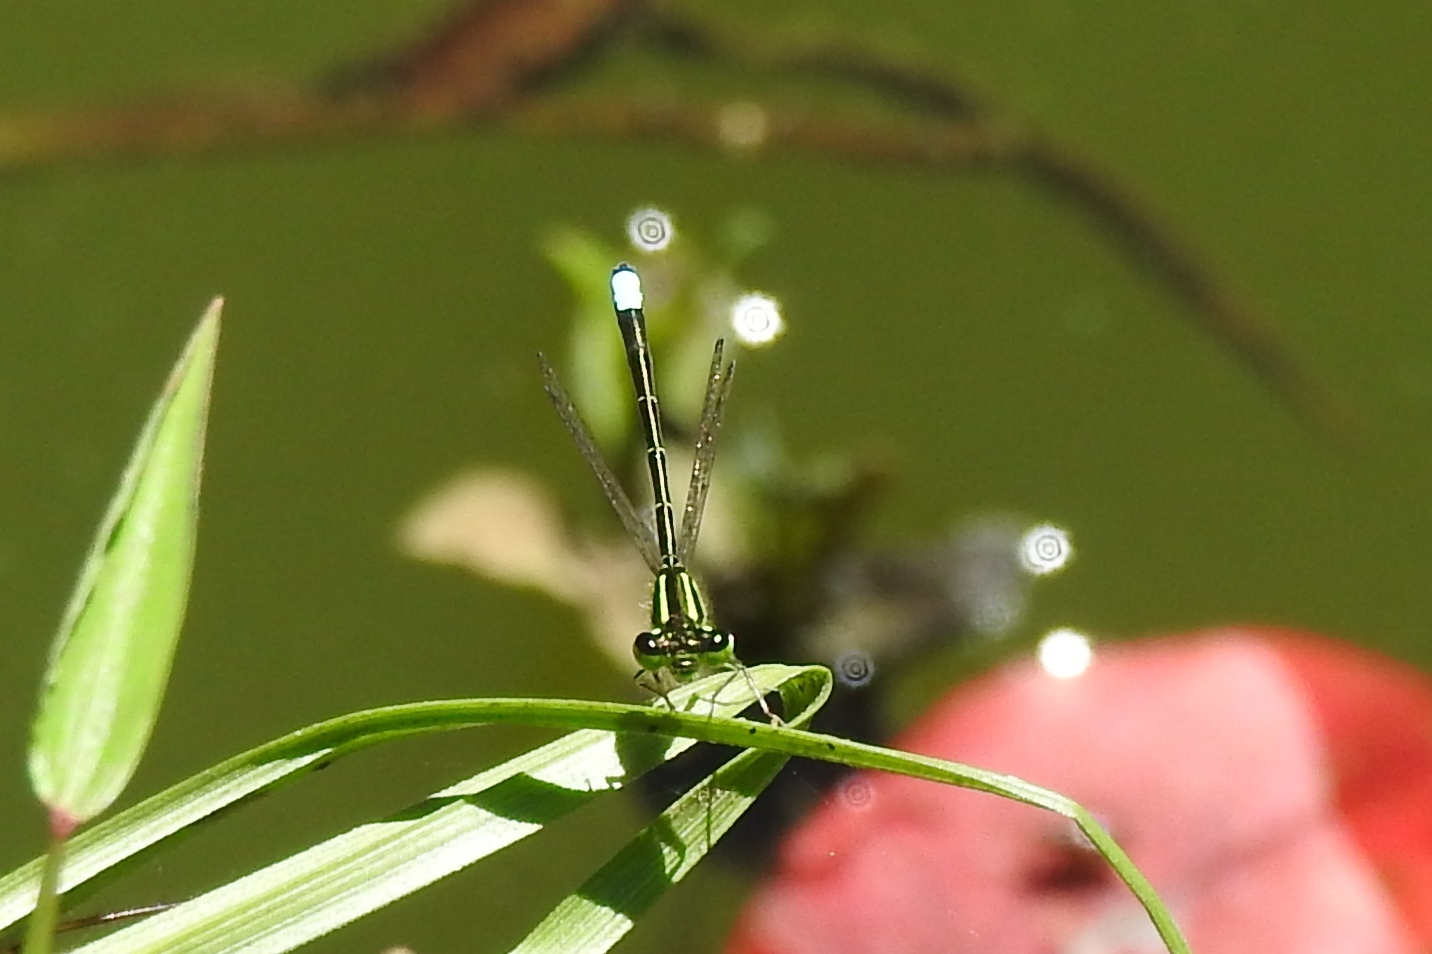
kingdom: Animalia
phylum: Arthropoda
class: Insecta
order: Odonata
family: Coenagrionidae
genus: Ischnura
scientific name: Ischnura verticalis
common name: Eastern forktail
